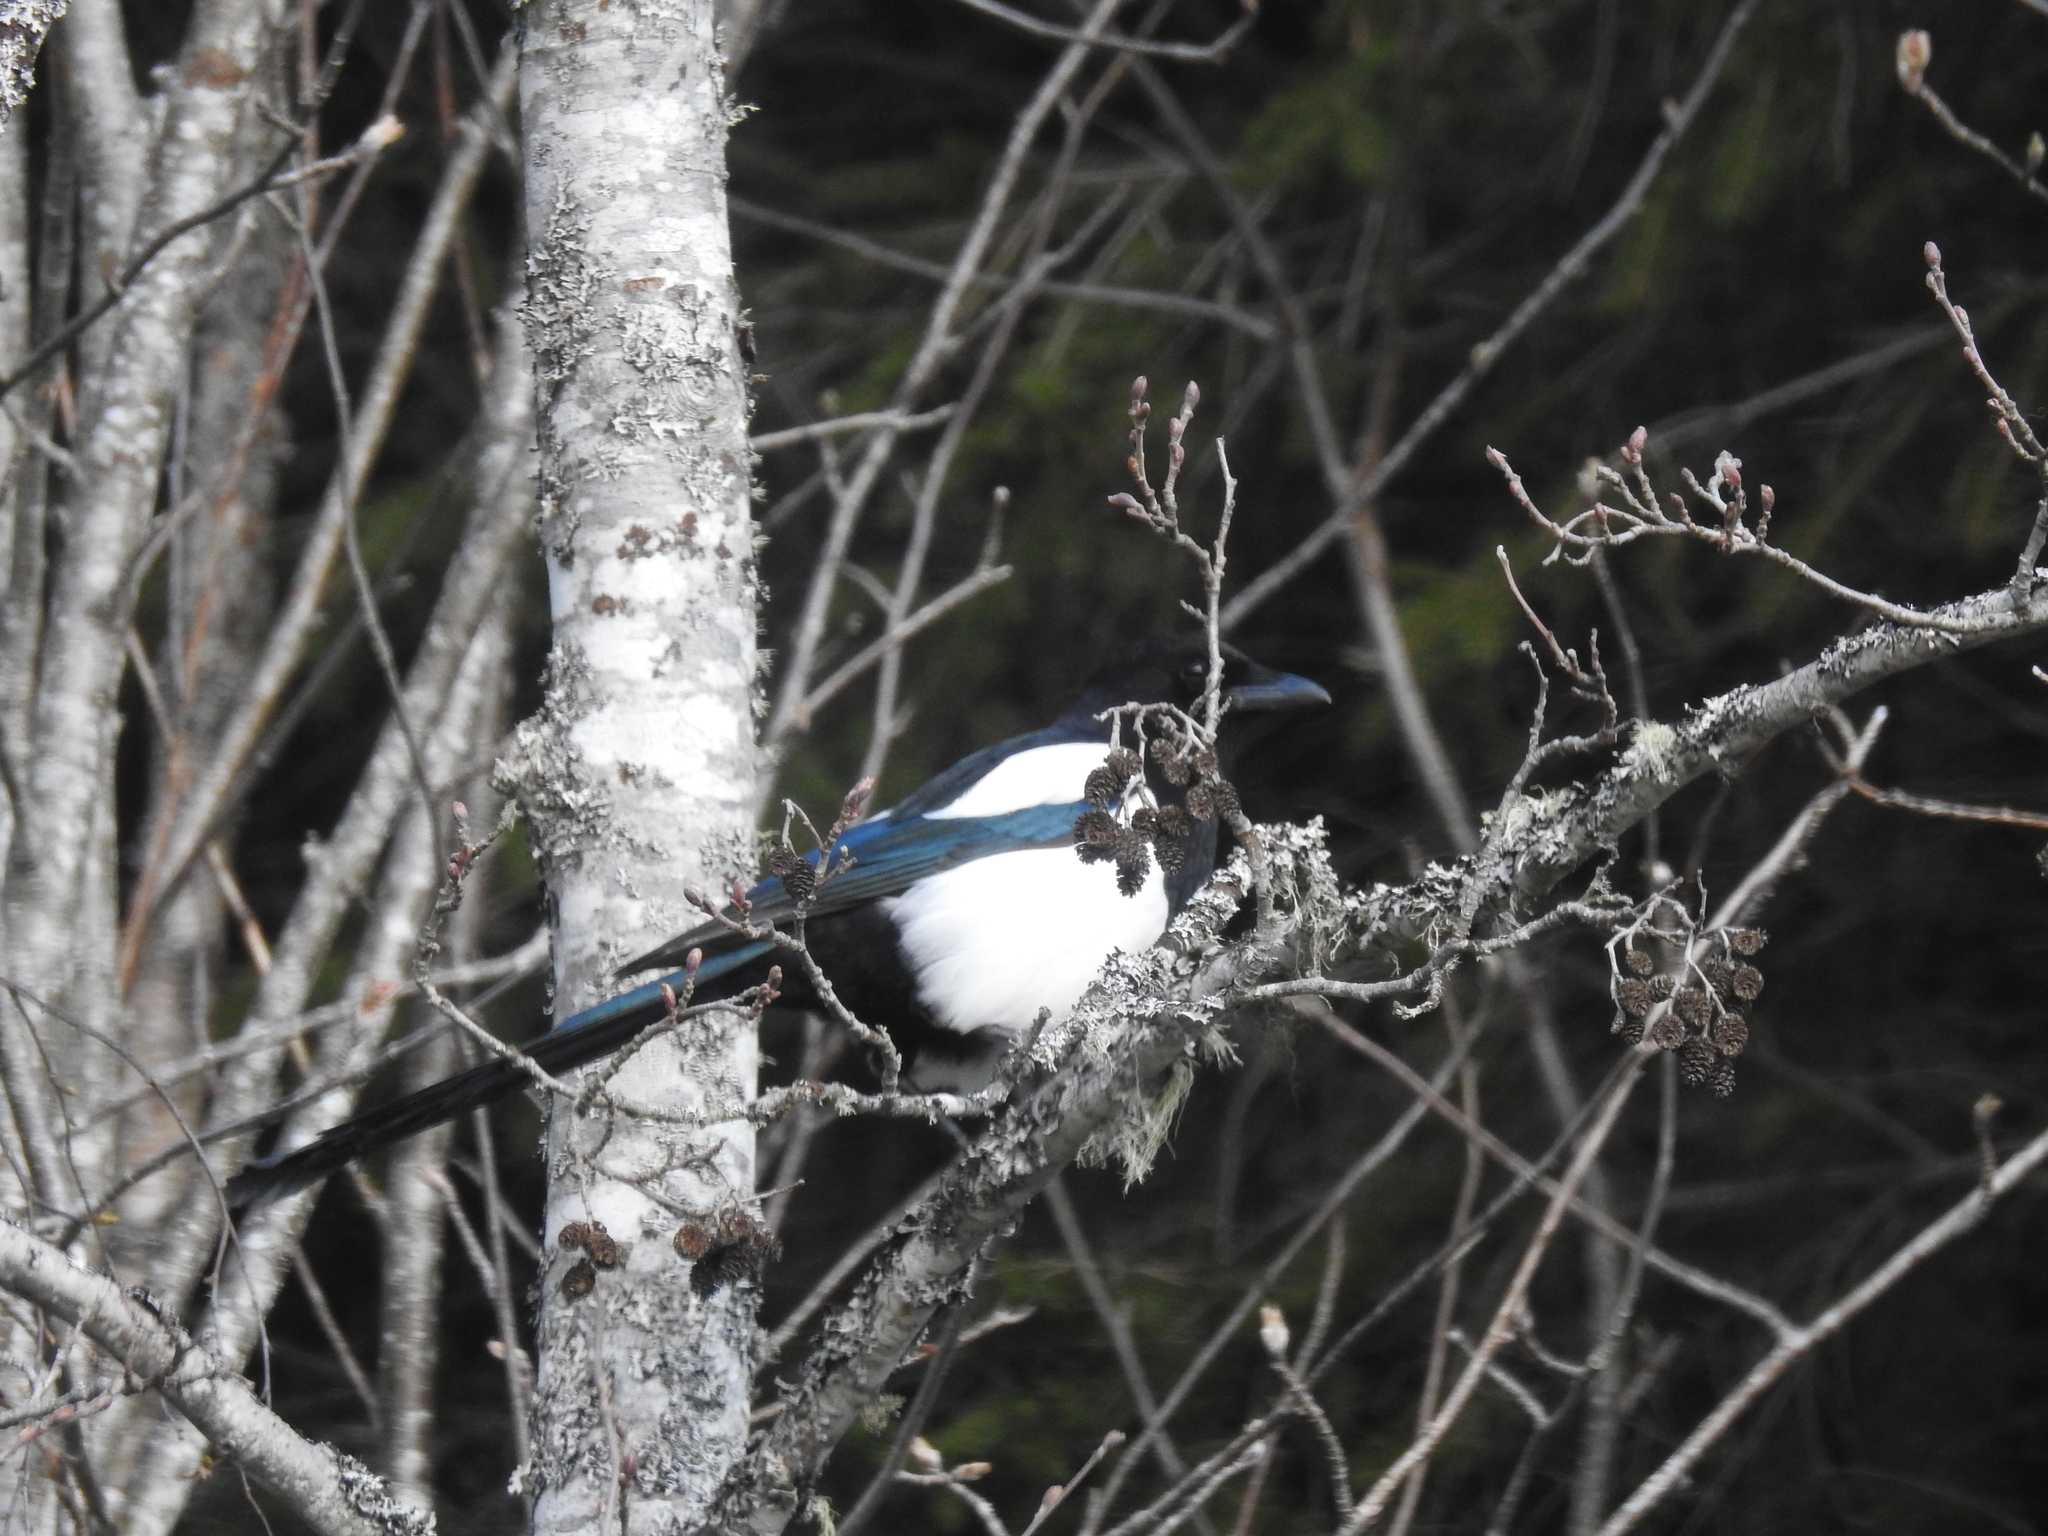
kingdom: Animalia
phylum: Chordata
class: Aves
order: Passeriformes
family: Corvidae
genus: Pica
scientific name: Pica pica
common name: Eurasian magpie
